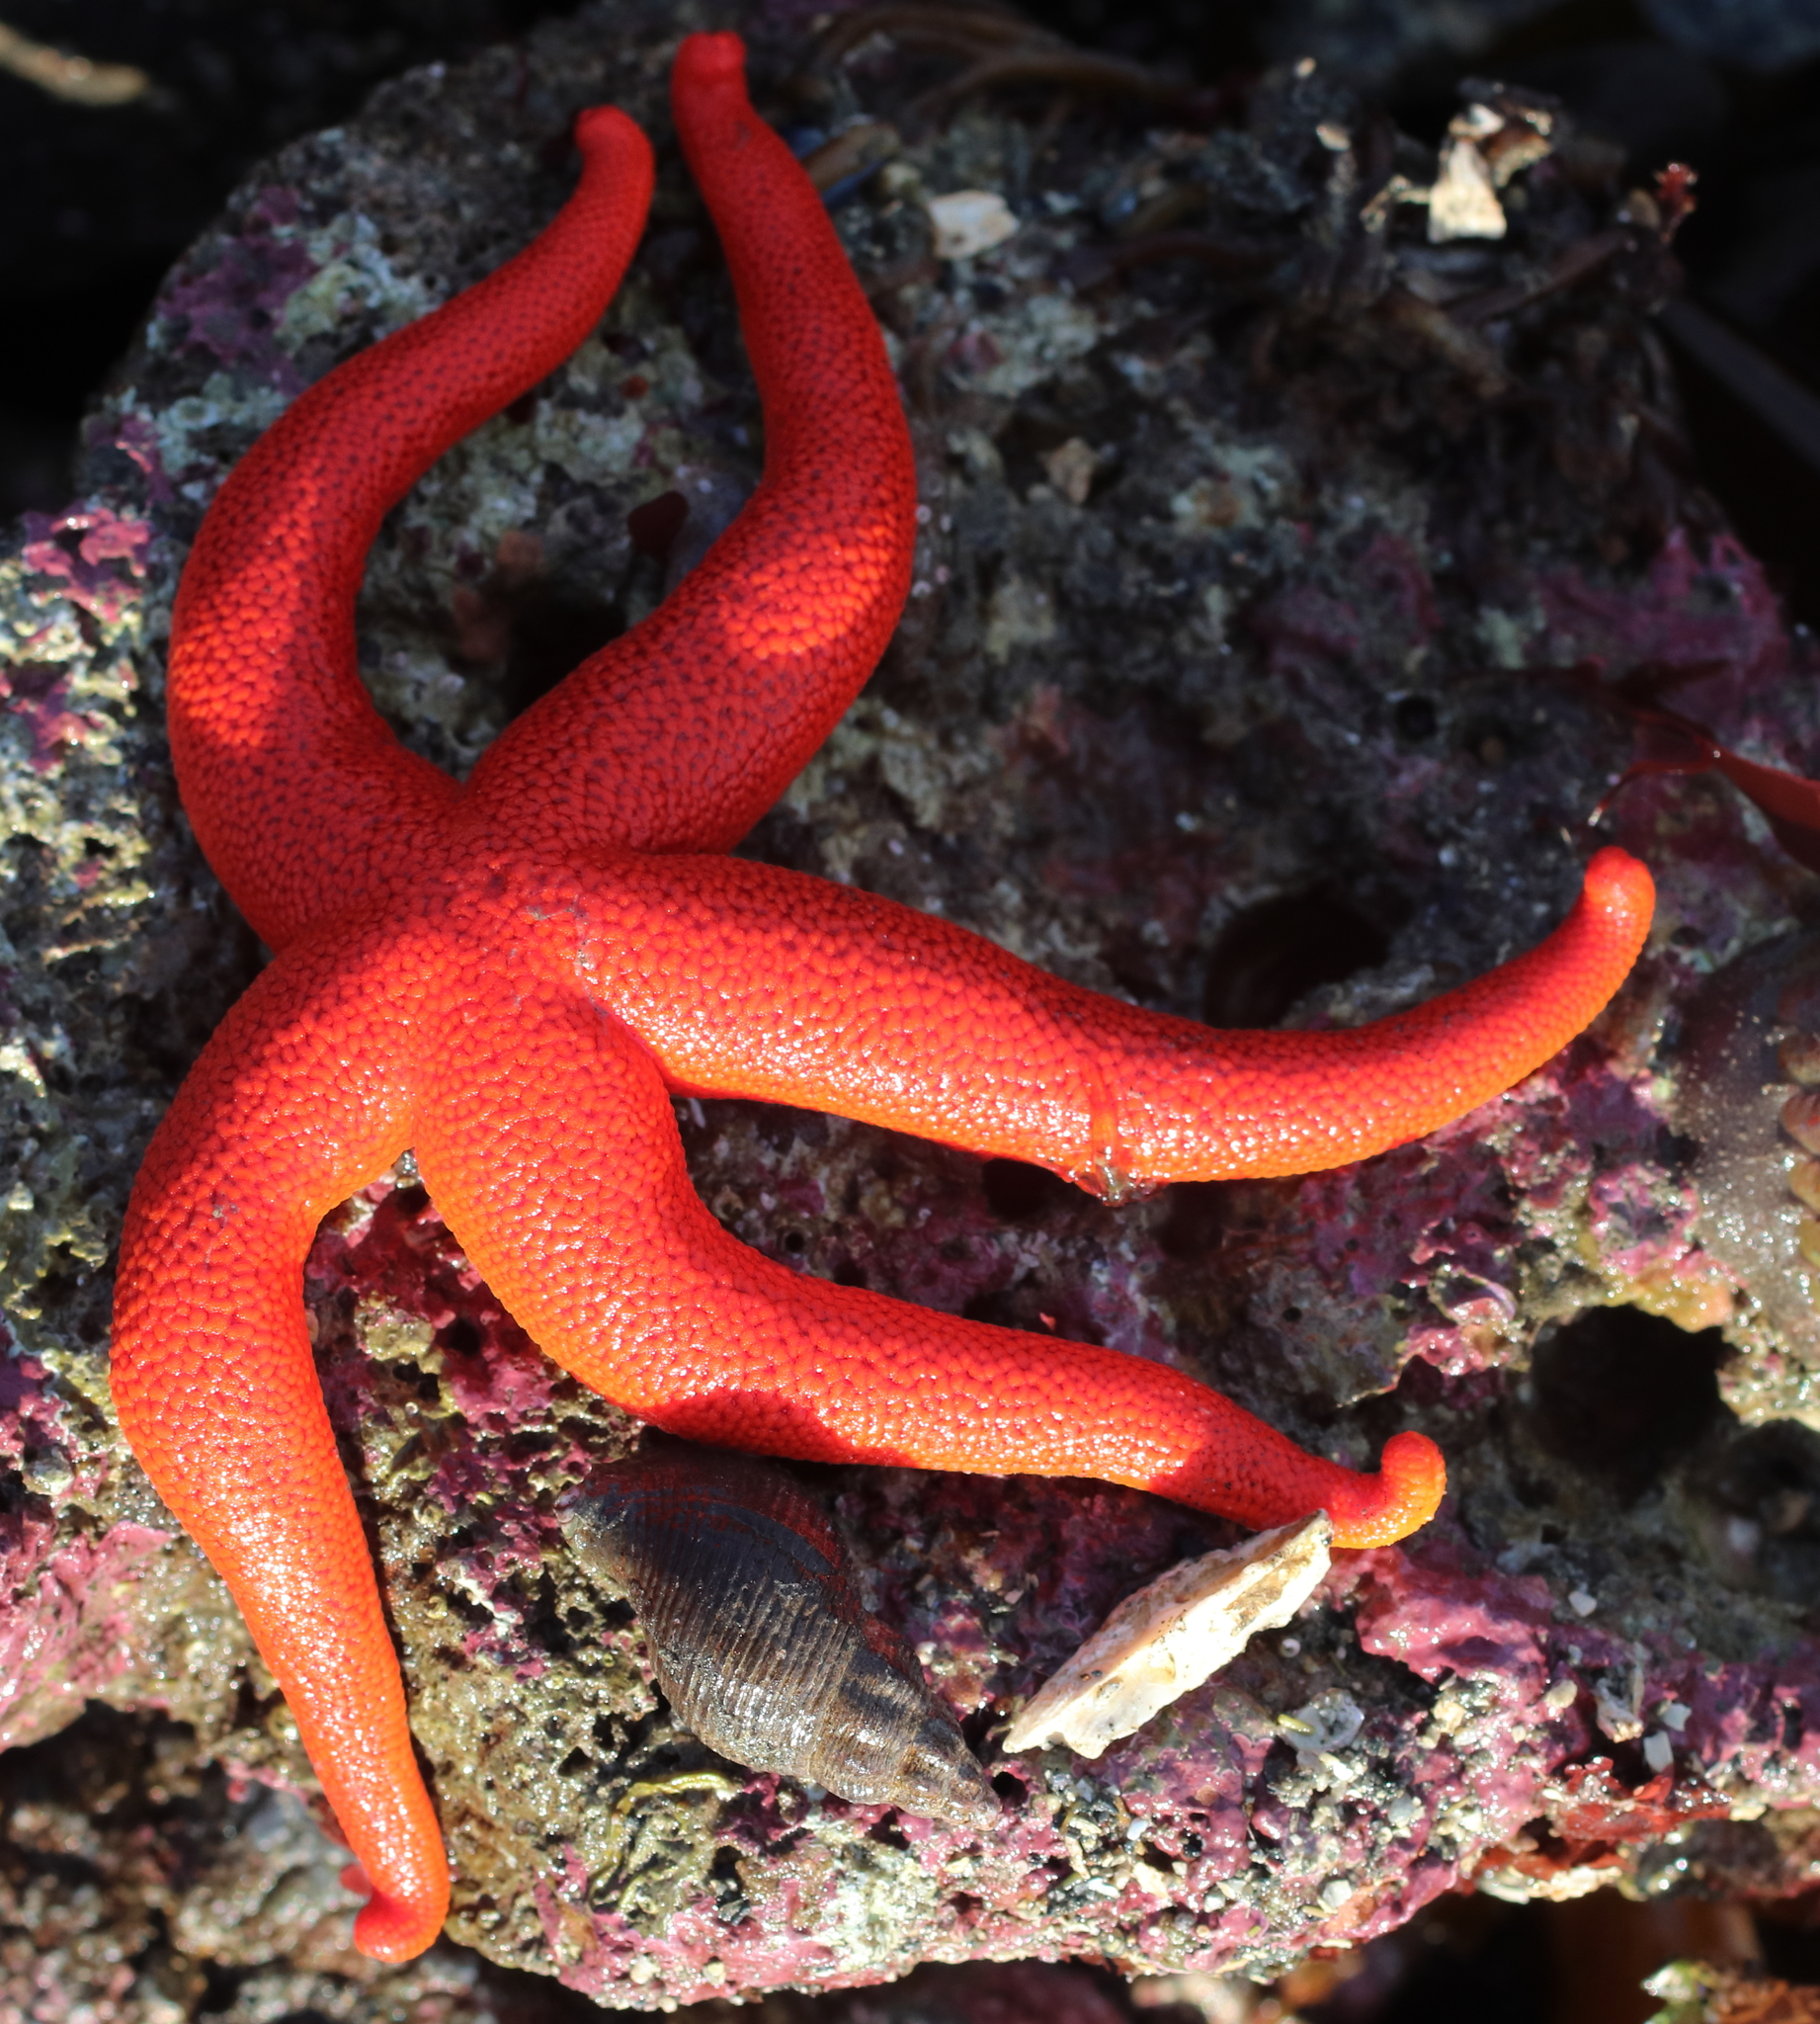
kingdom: Animalia
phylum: Echinodermata
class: Asteroidea
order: Spinulosida
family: Echinasteridae
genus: Henricia
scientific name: Henricia leviuscula
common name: Pacific blood star
